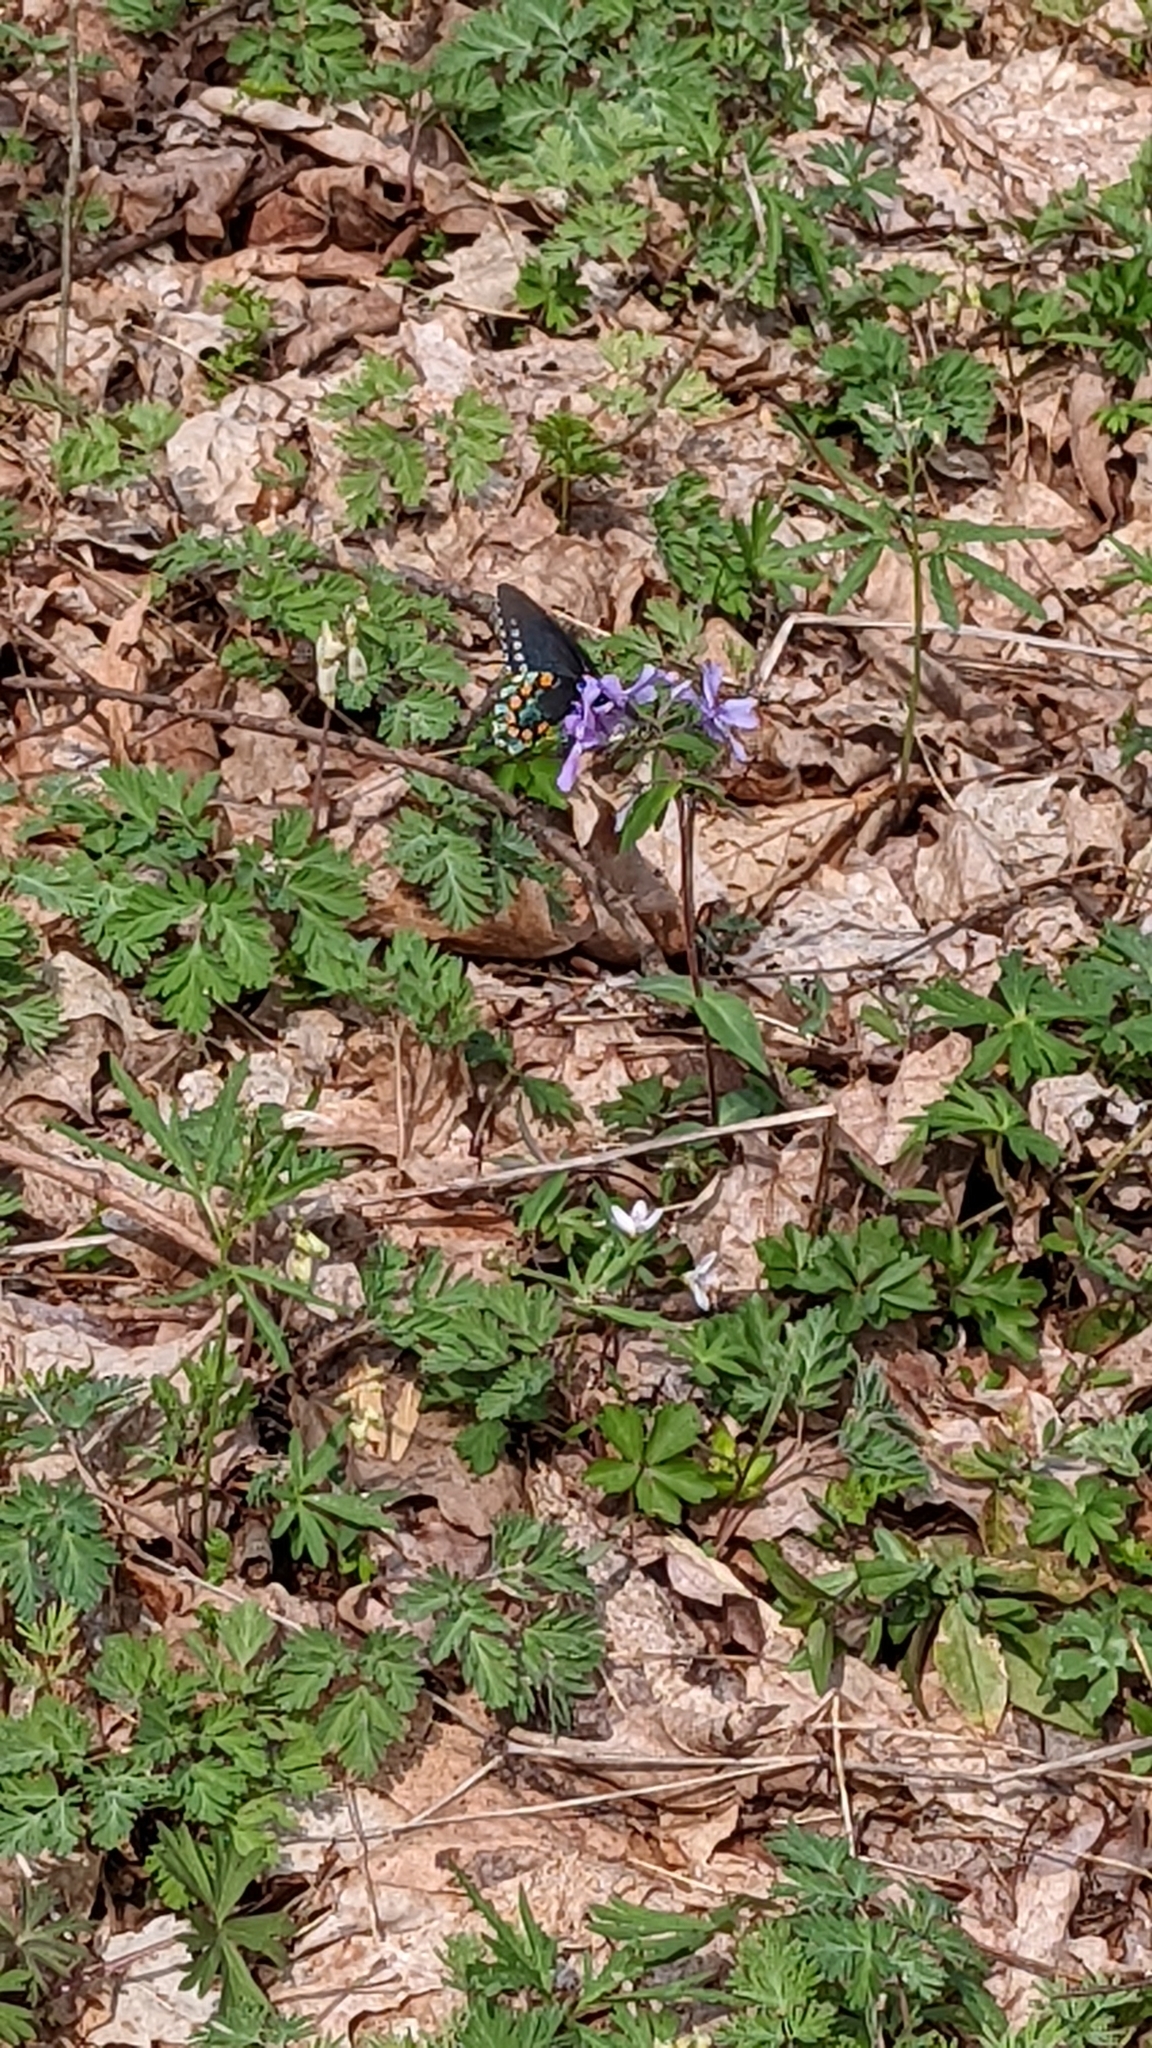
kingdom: Animalia
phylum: Arthropoda
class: Insecta
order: Lepidoptera
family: Papilionidae
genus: Battus
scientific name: Battus philenor
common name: Pipevine swallowtail
